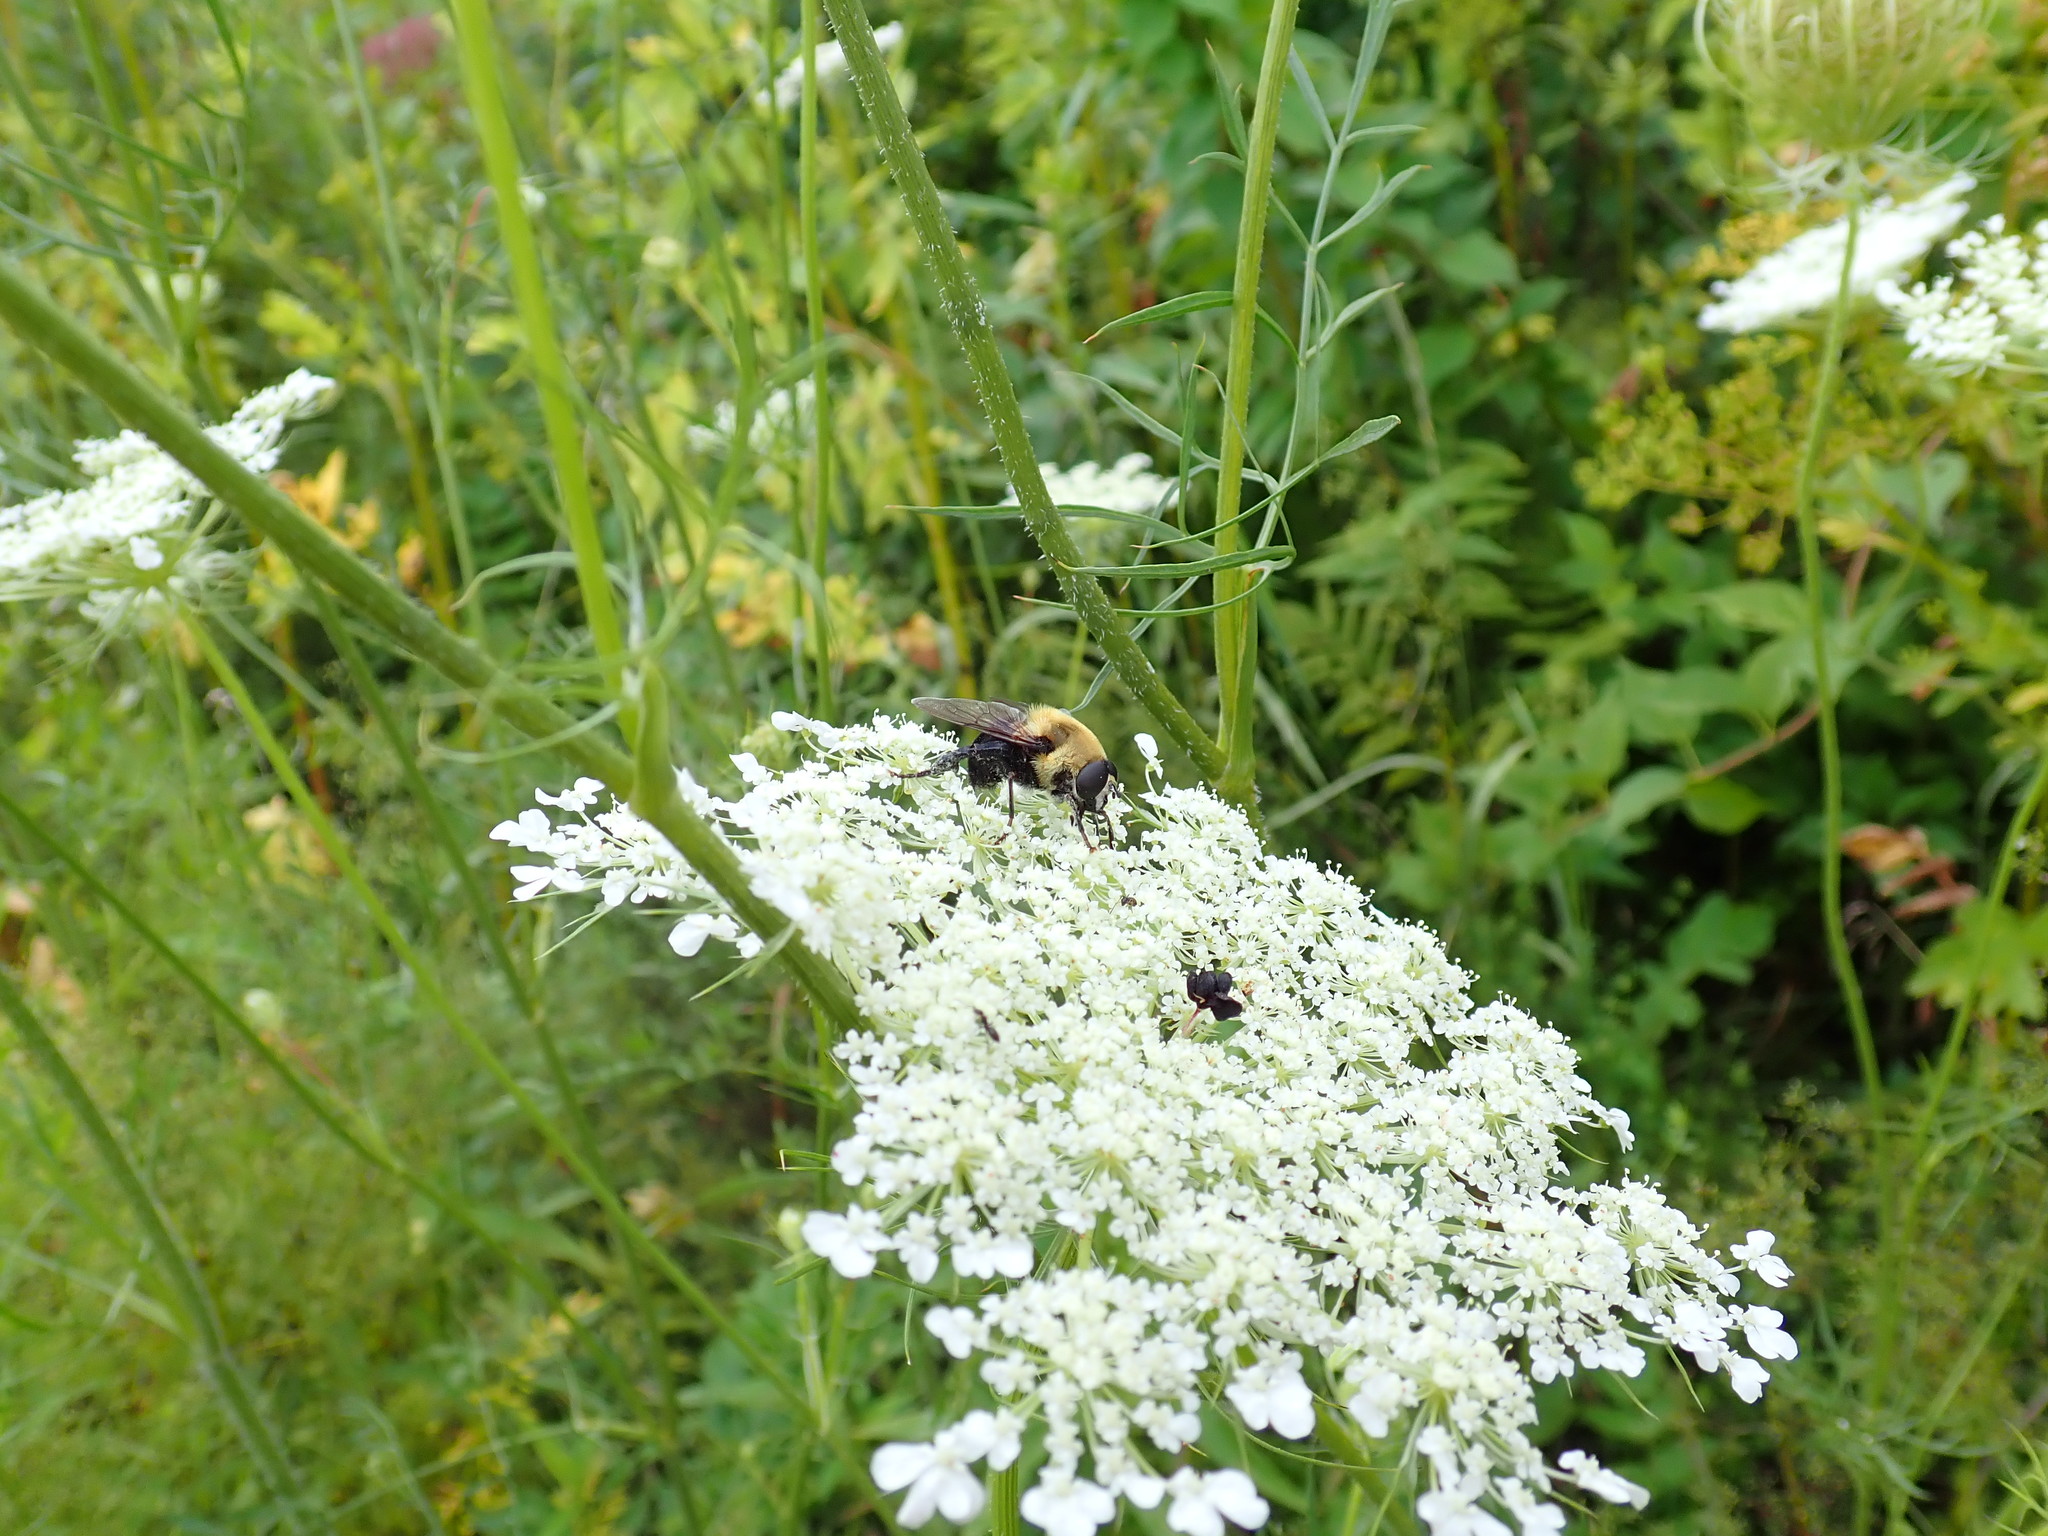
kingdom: Animalia
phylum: Arthropoda
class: Insecta
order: Diptera
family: Syrphidae
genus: Imatisma
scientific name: Imatisma bautias
